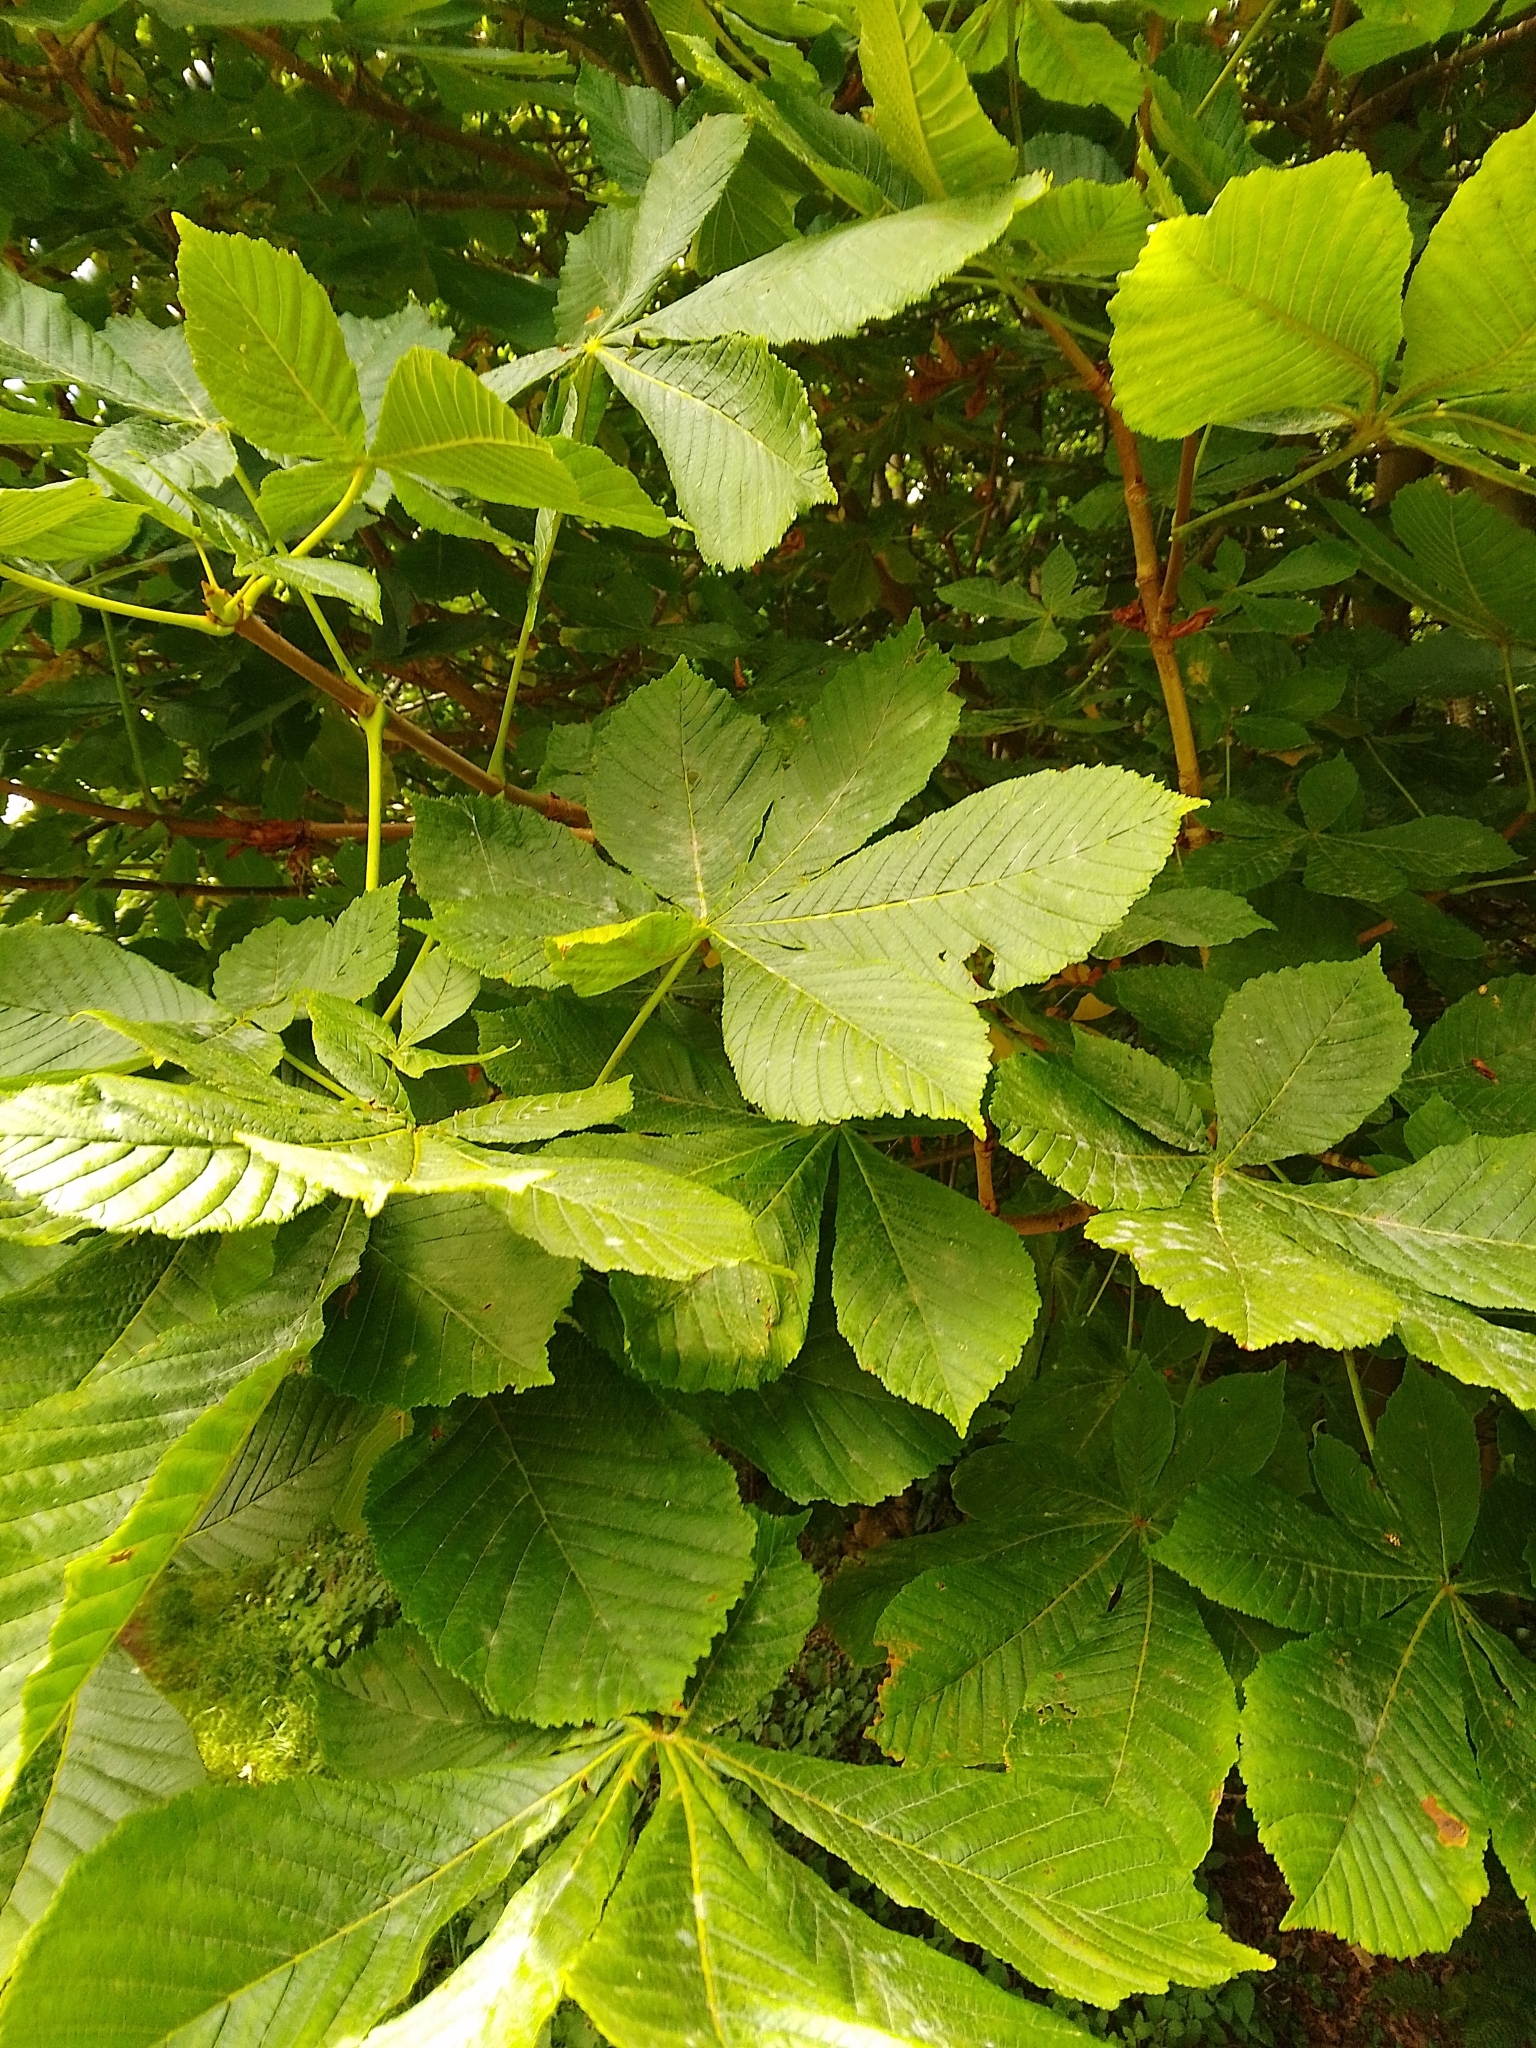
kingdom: Plantae
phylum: Tracheophyta
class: Magnoliopsida
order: Sapindales
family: Sapindaceae
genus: Aesculus
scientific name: Aesculus hippocastanum
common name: Horse-chestnut
